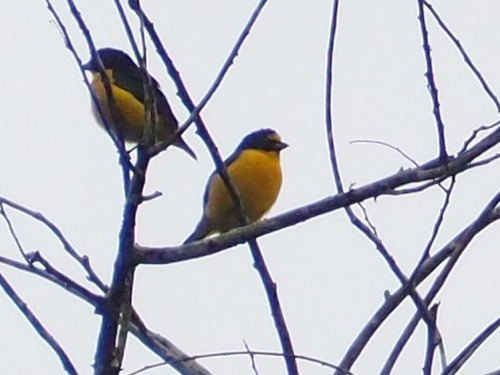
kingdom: Animalia
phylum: Chordata
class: Aves
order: Passeriformes
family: Fringillidae
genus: Euphonia
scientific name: Euphonia hirundinacea
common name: Yellow-throated euphonia
